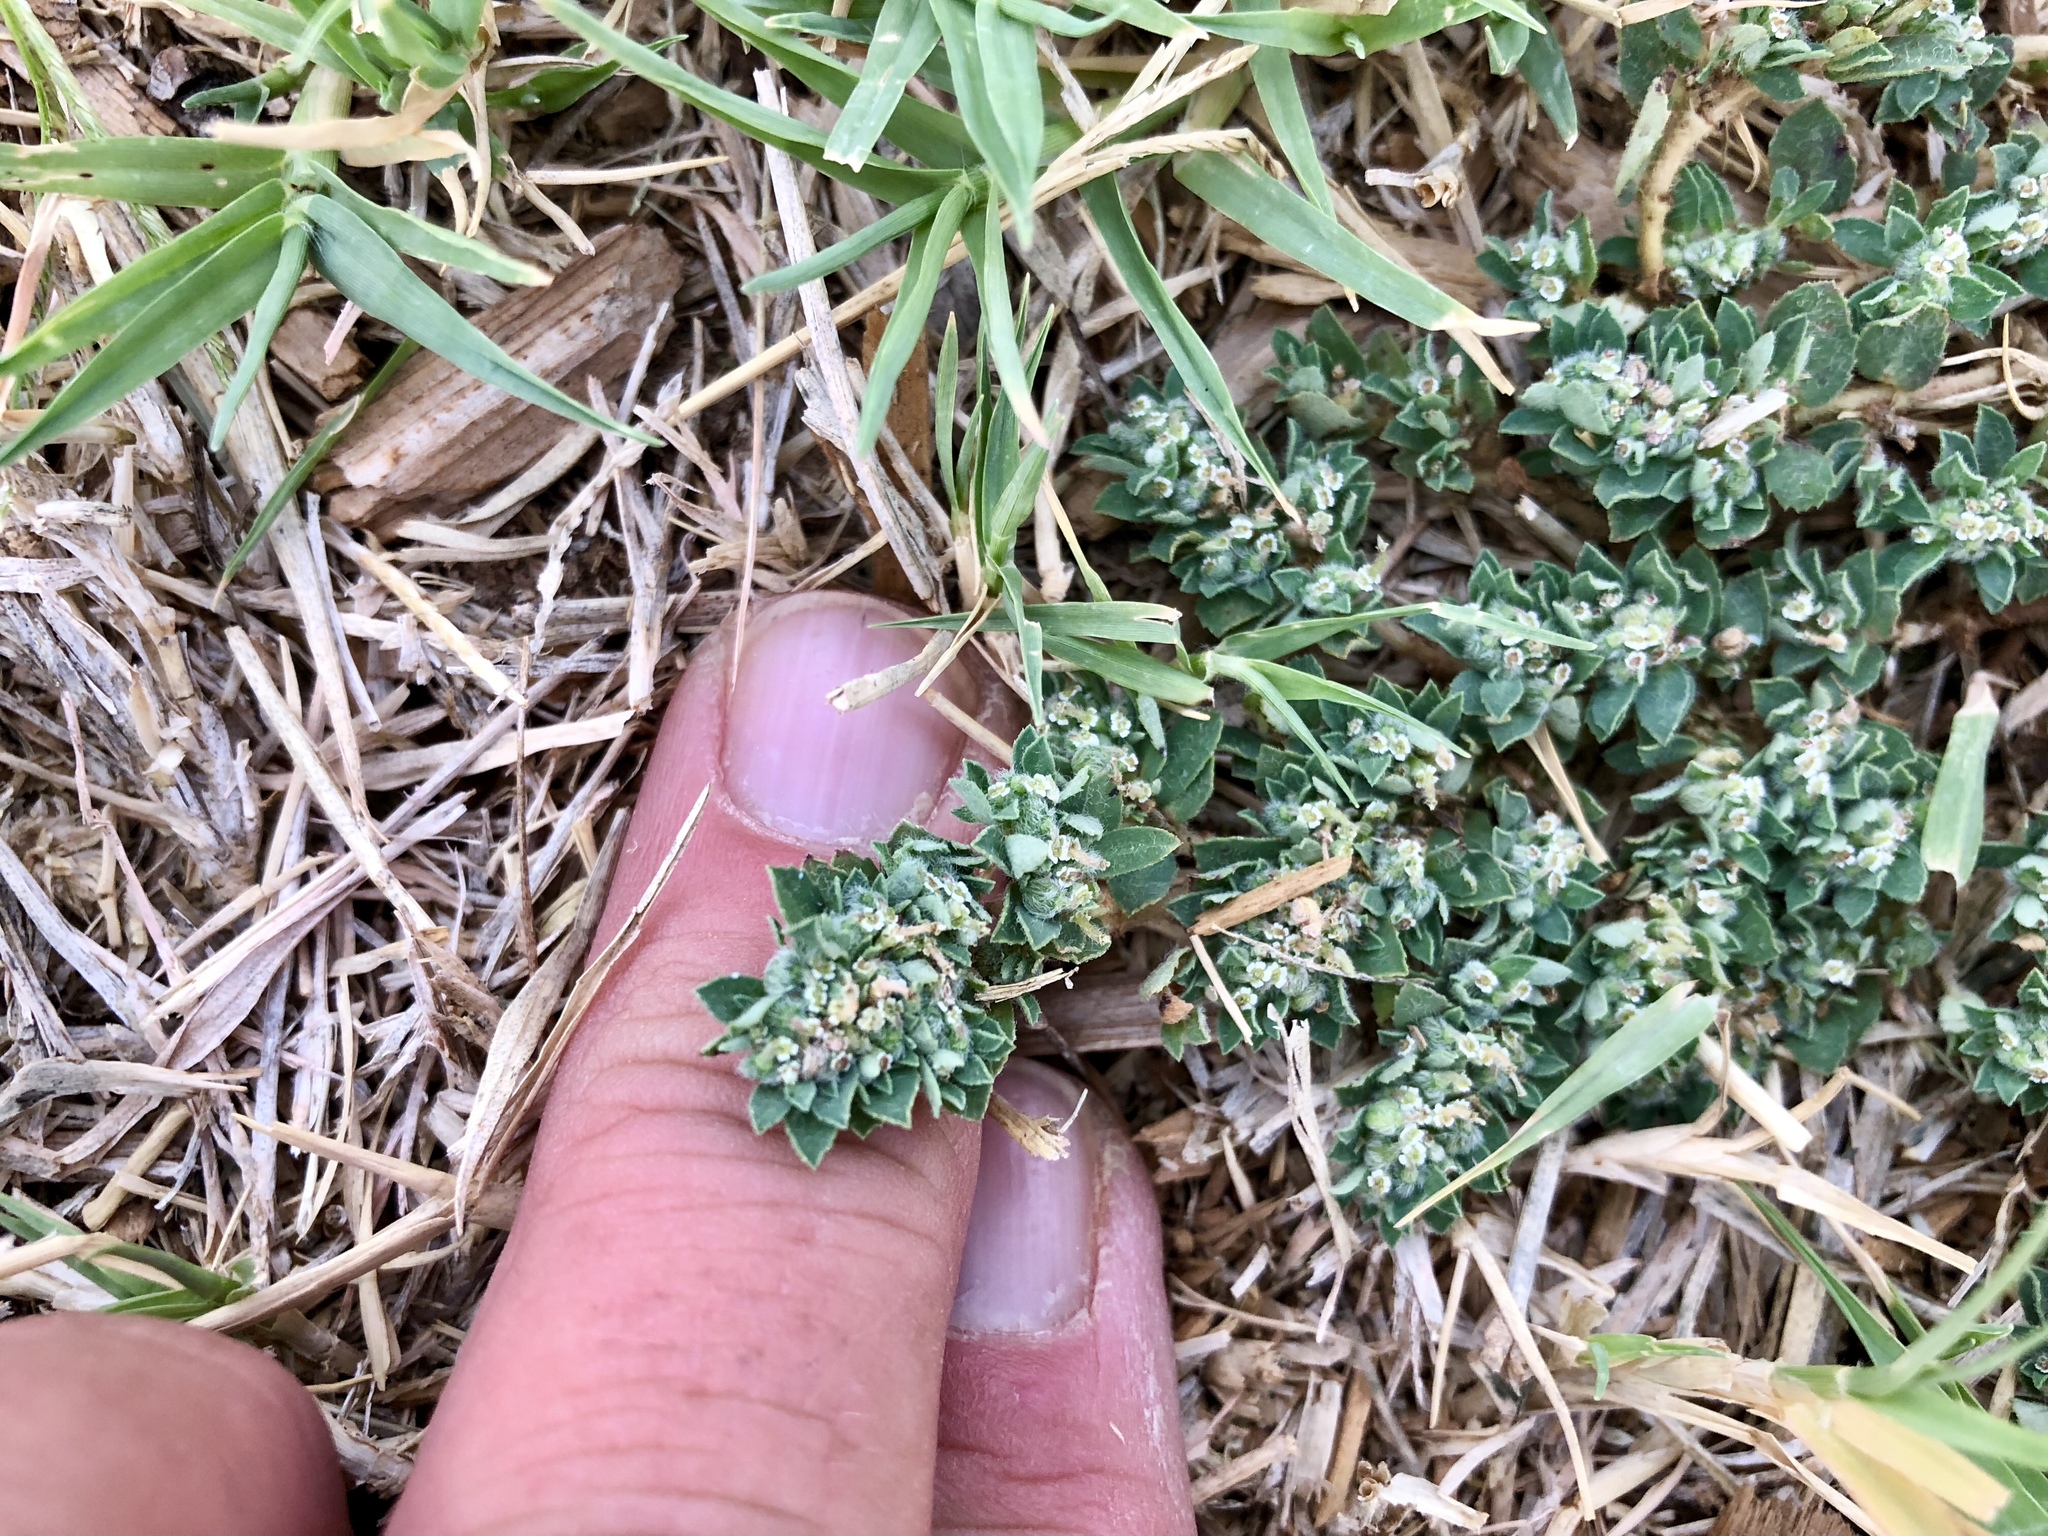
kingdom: Plantae
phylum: Tracheophyta
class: Magnoliopsida
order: Malpighiales
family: Euphorbiaceae
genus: Euphorbia
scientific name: Euphorbia stictospora
